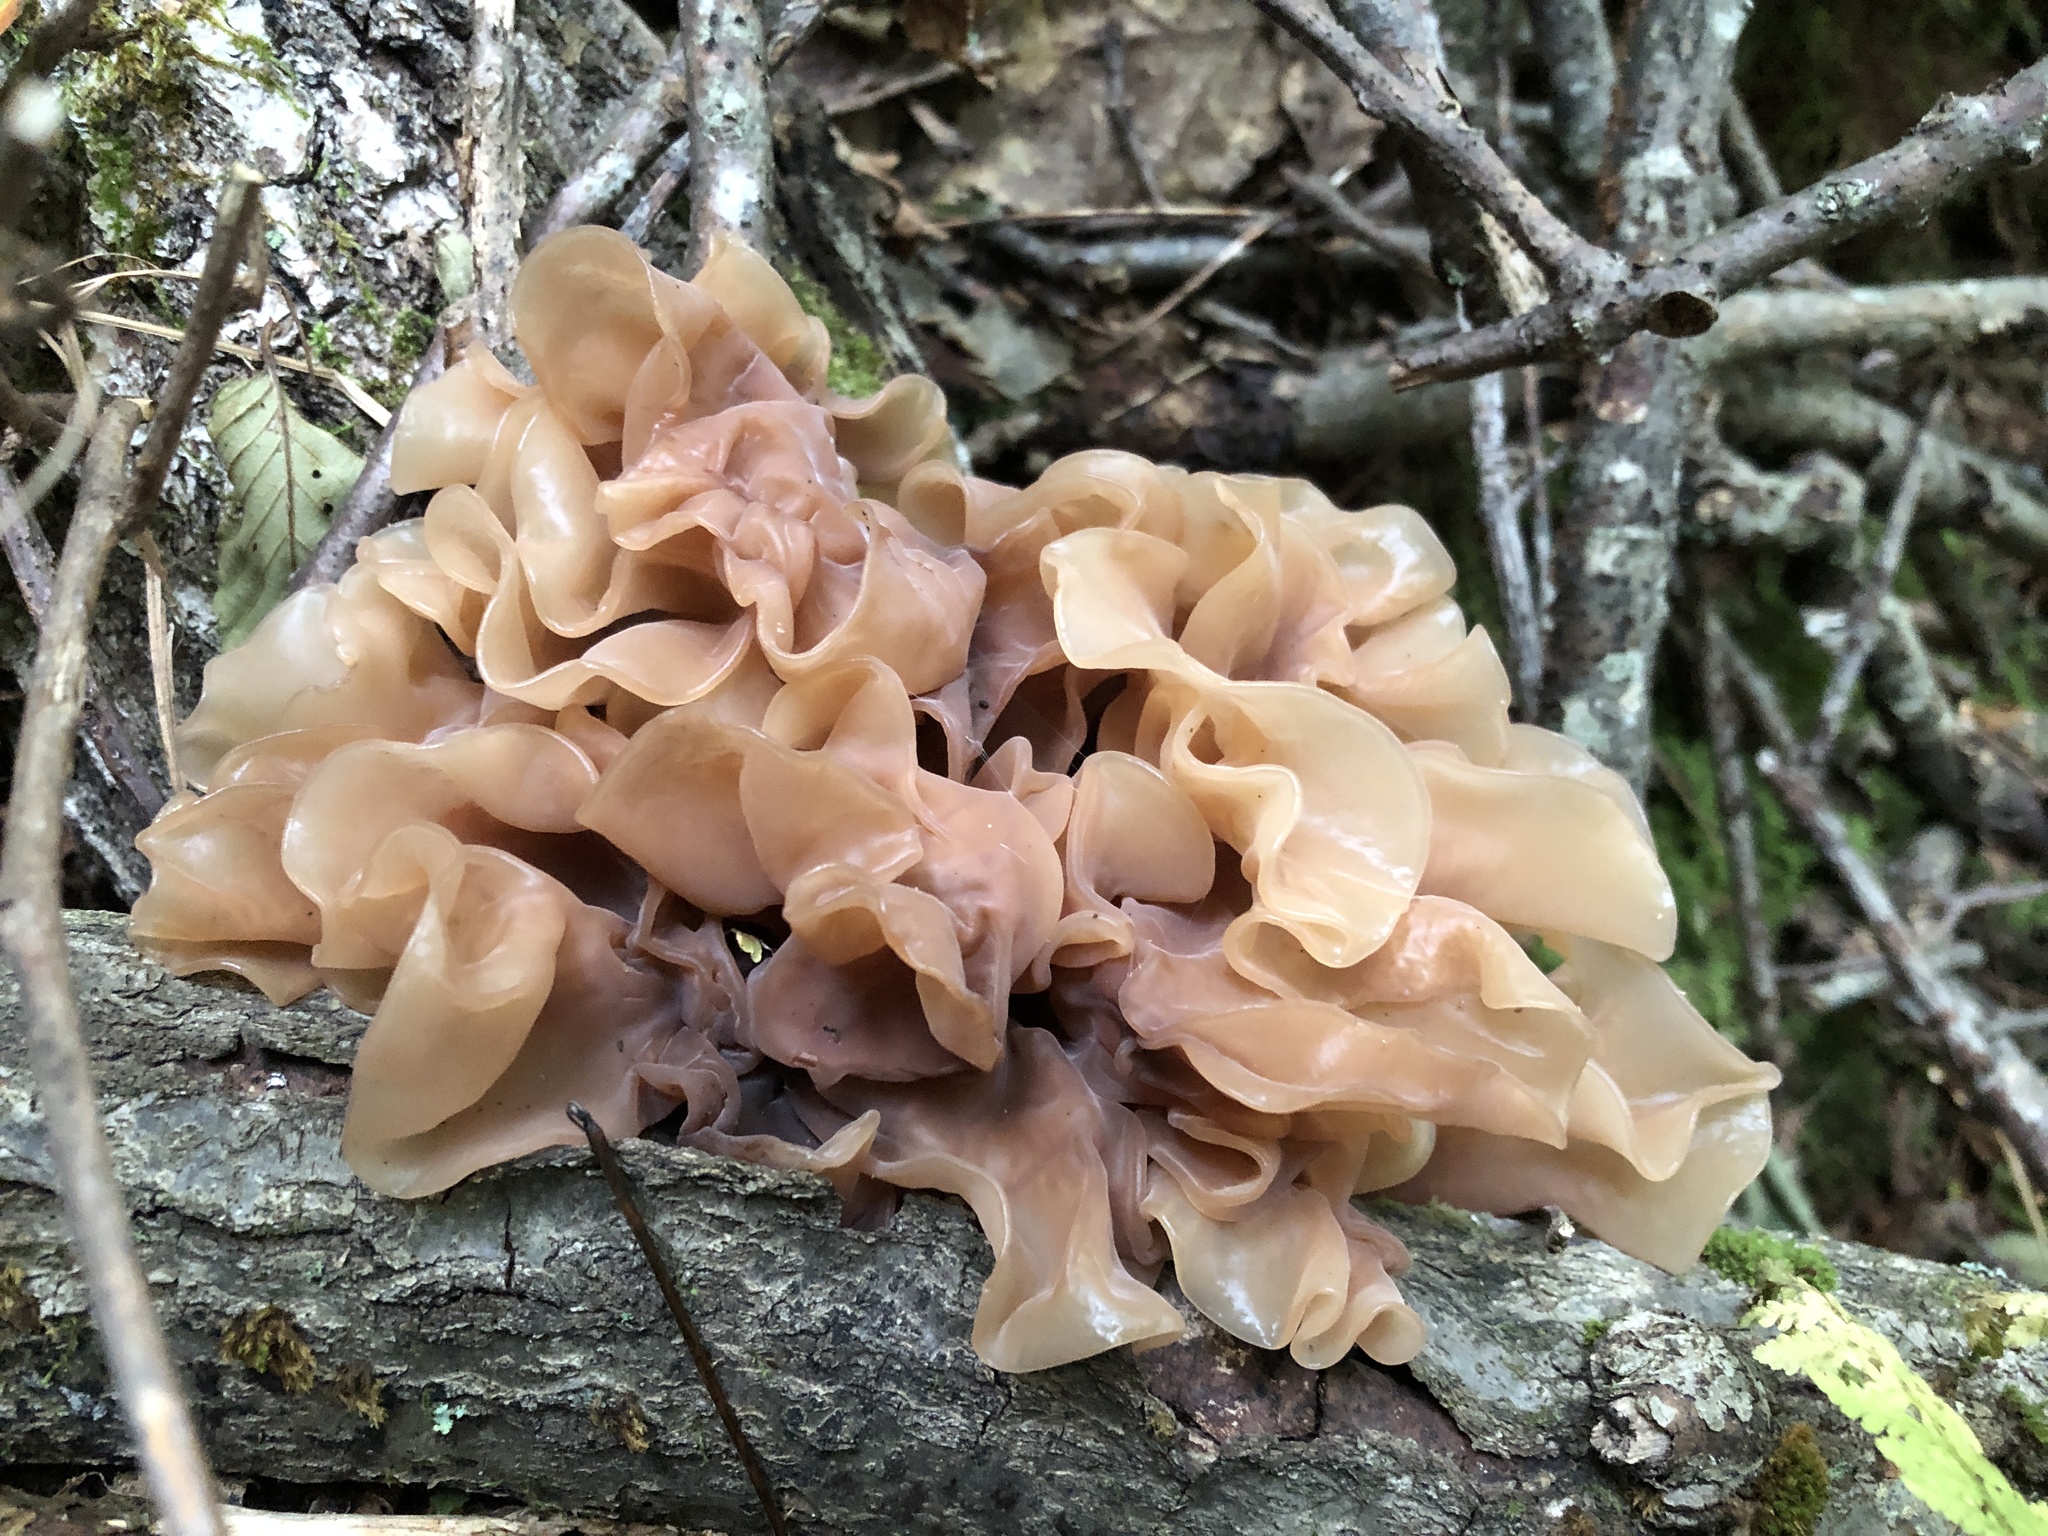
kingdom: Fungi
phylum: Basidiomycota
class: Tremellomycetes
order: Tremellales
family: Tremellaceae
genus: Phaeotremella
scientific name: Phaeotremella frondosa
